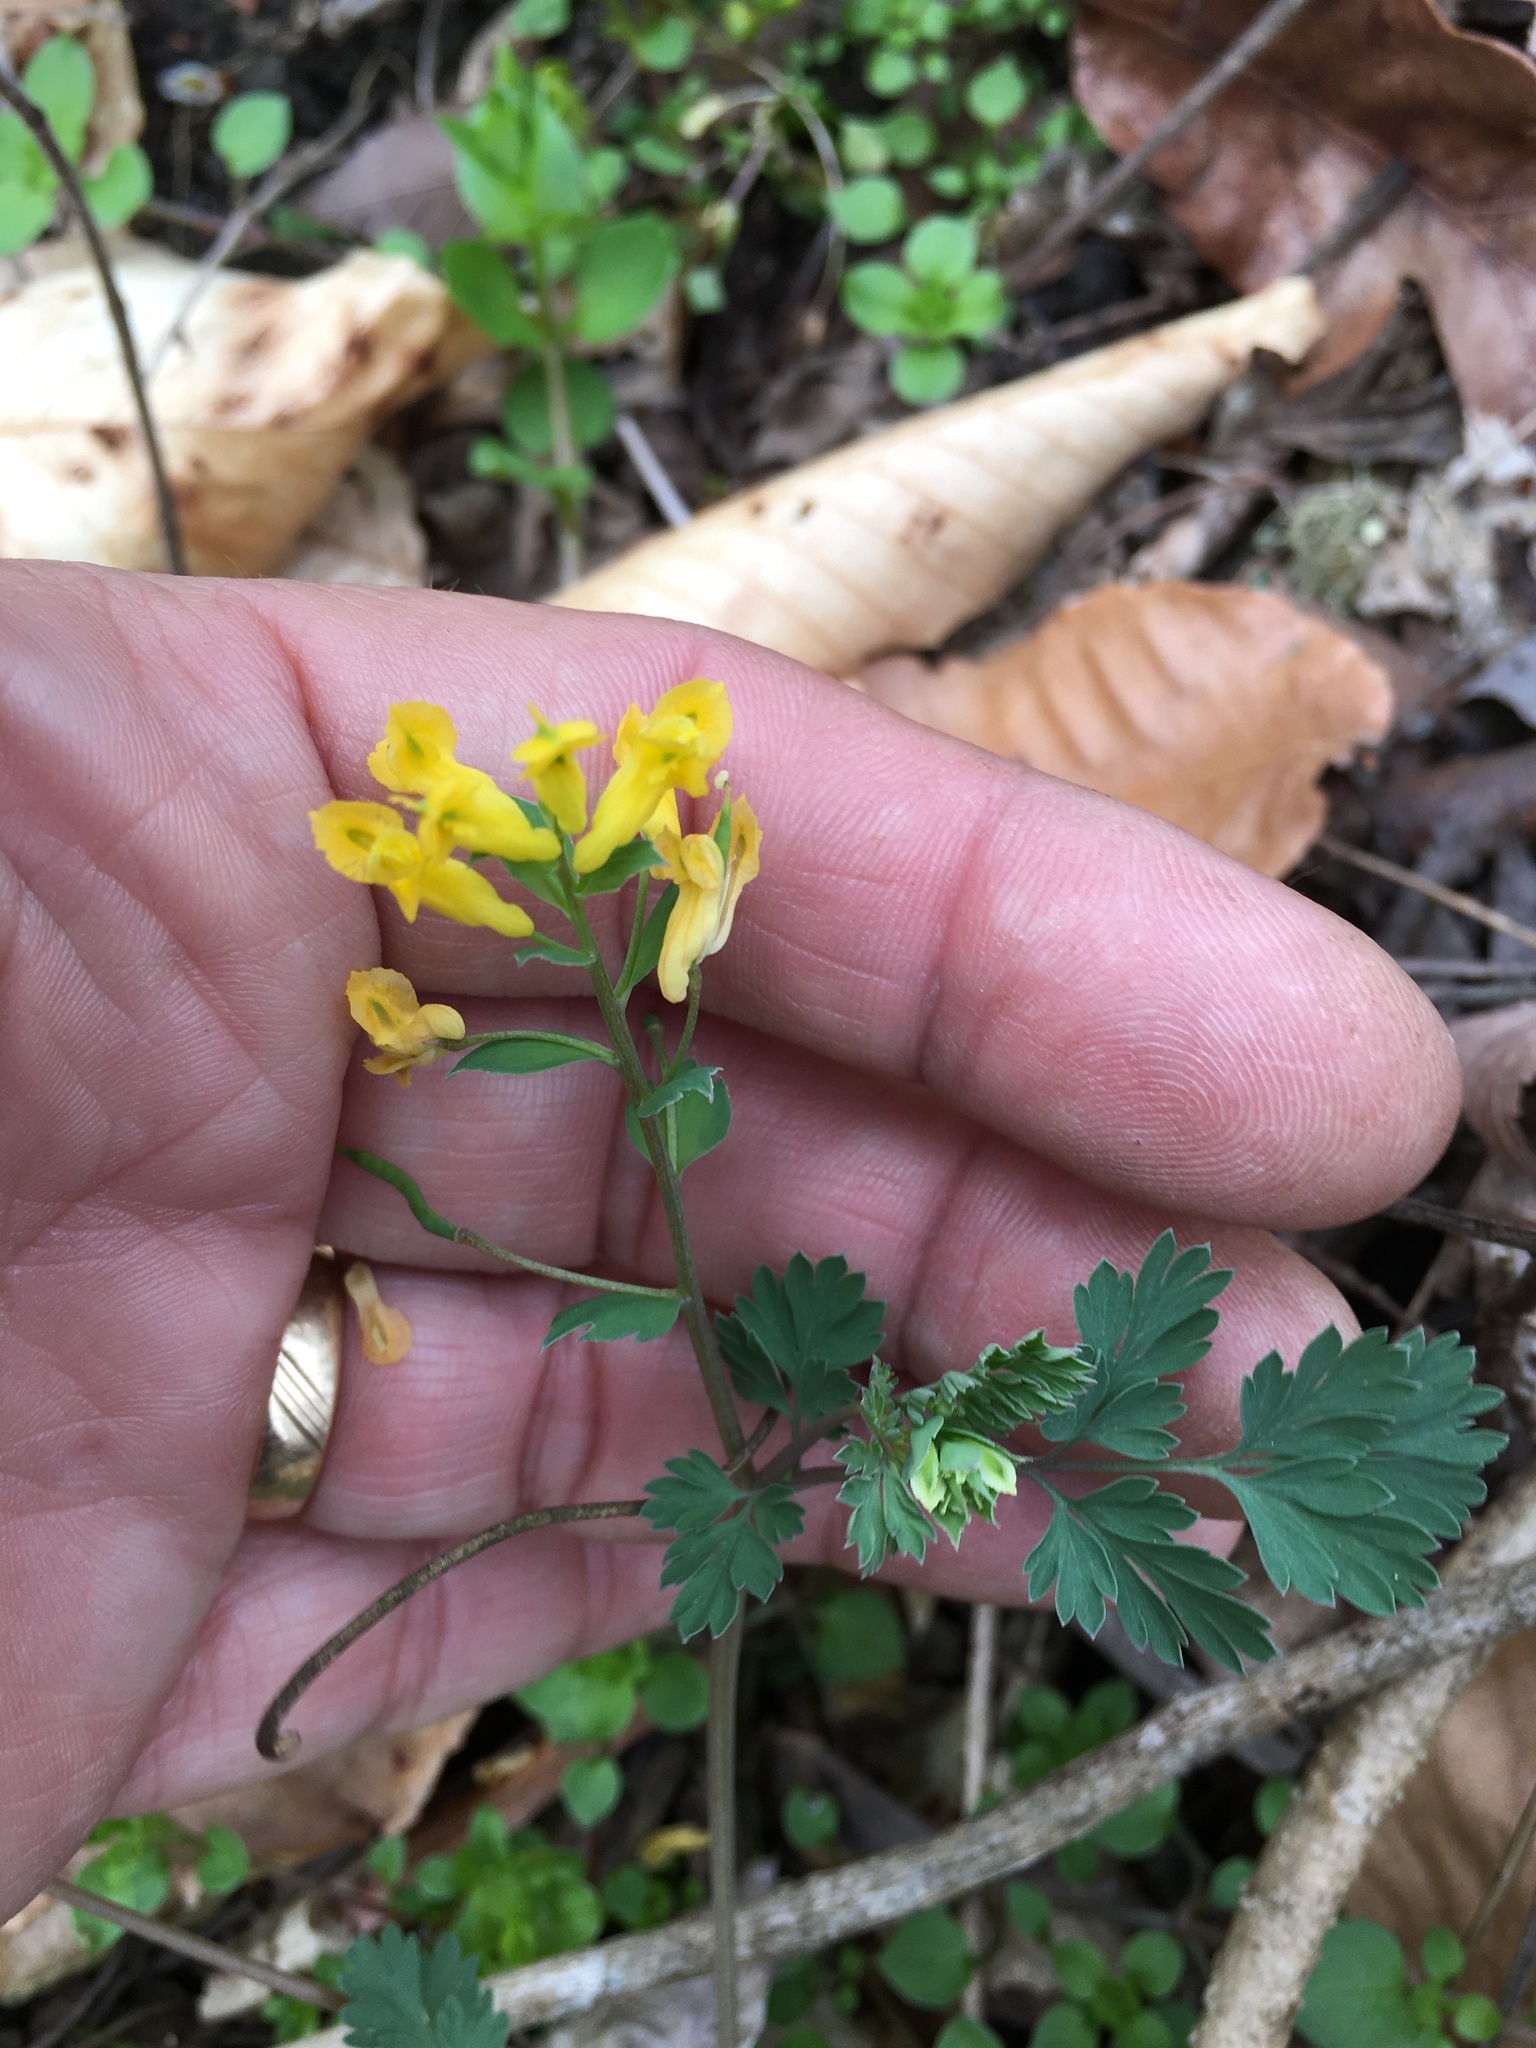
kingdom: Plantae
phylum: Tracheophyta
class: Magnoliopsida
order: Ranunculales
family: Papaveraceae
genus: Corydalis
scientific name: Corydalis flavula
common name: Yellow corydalis
